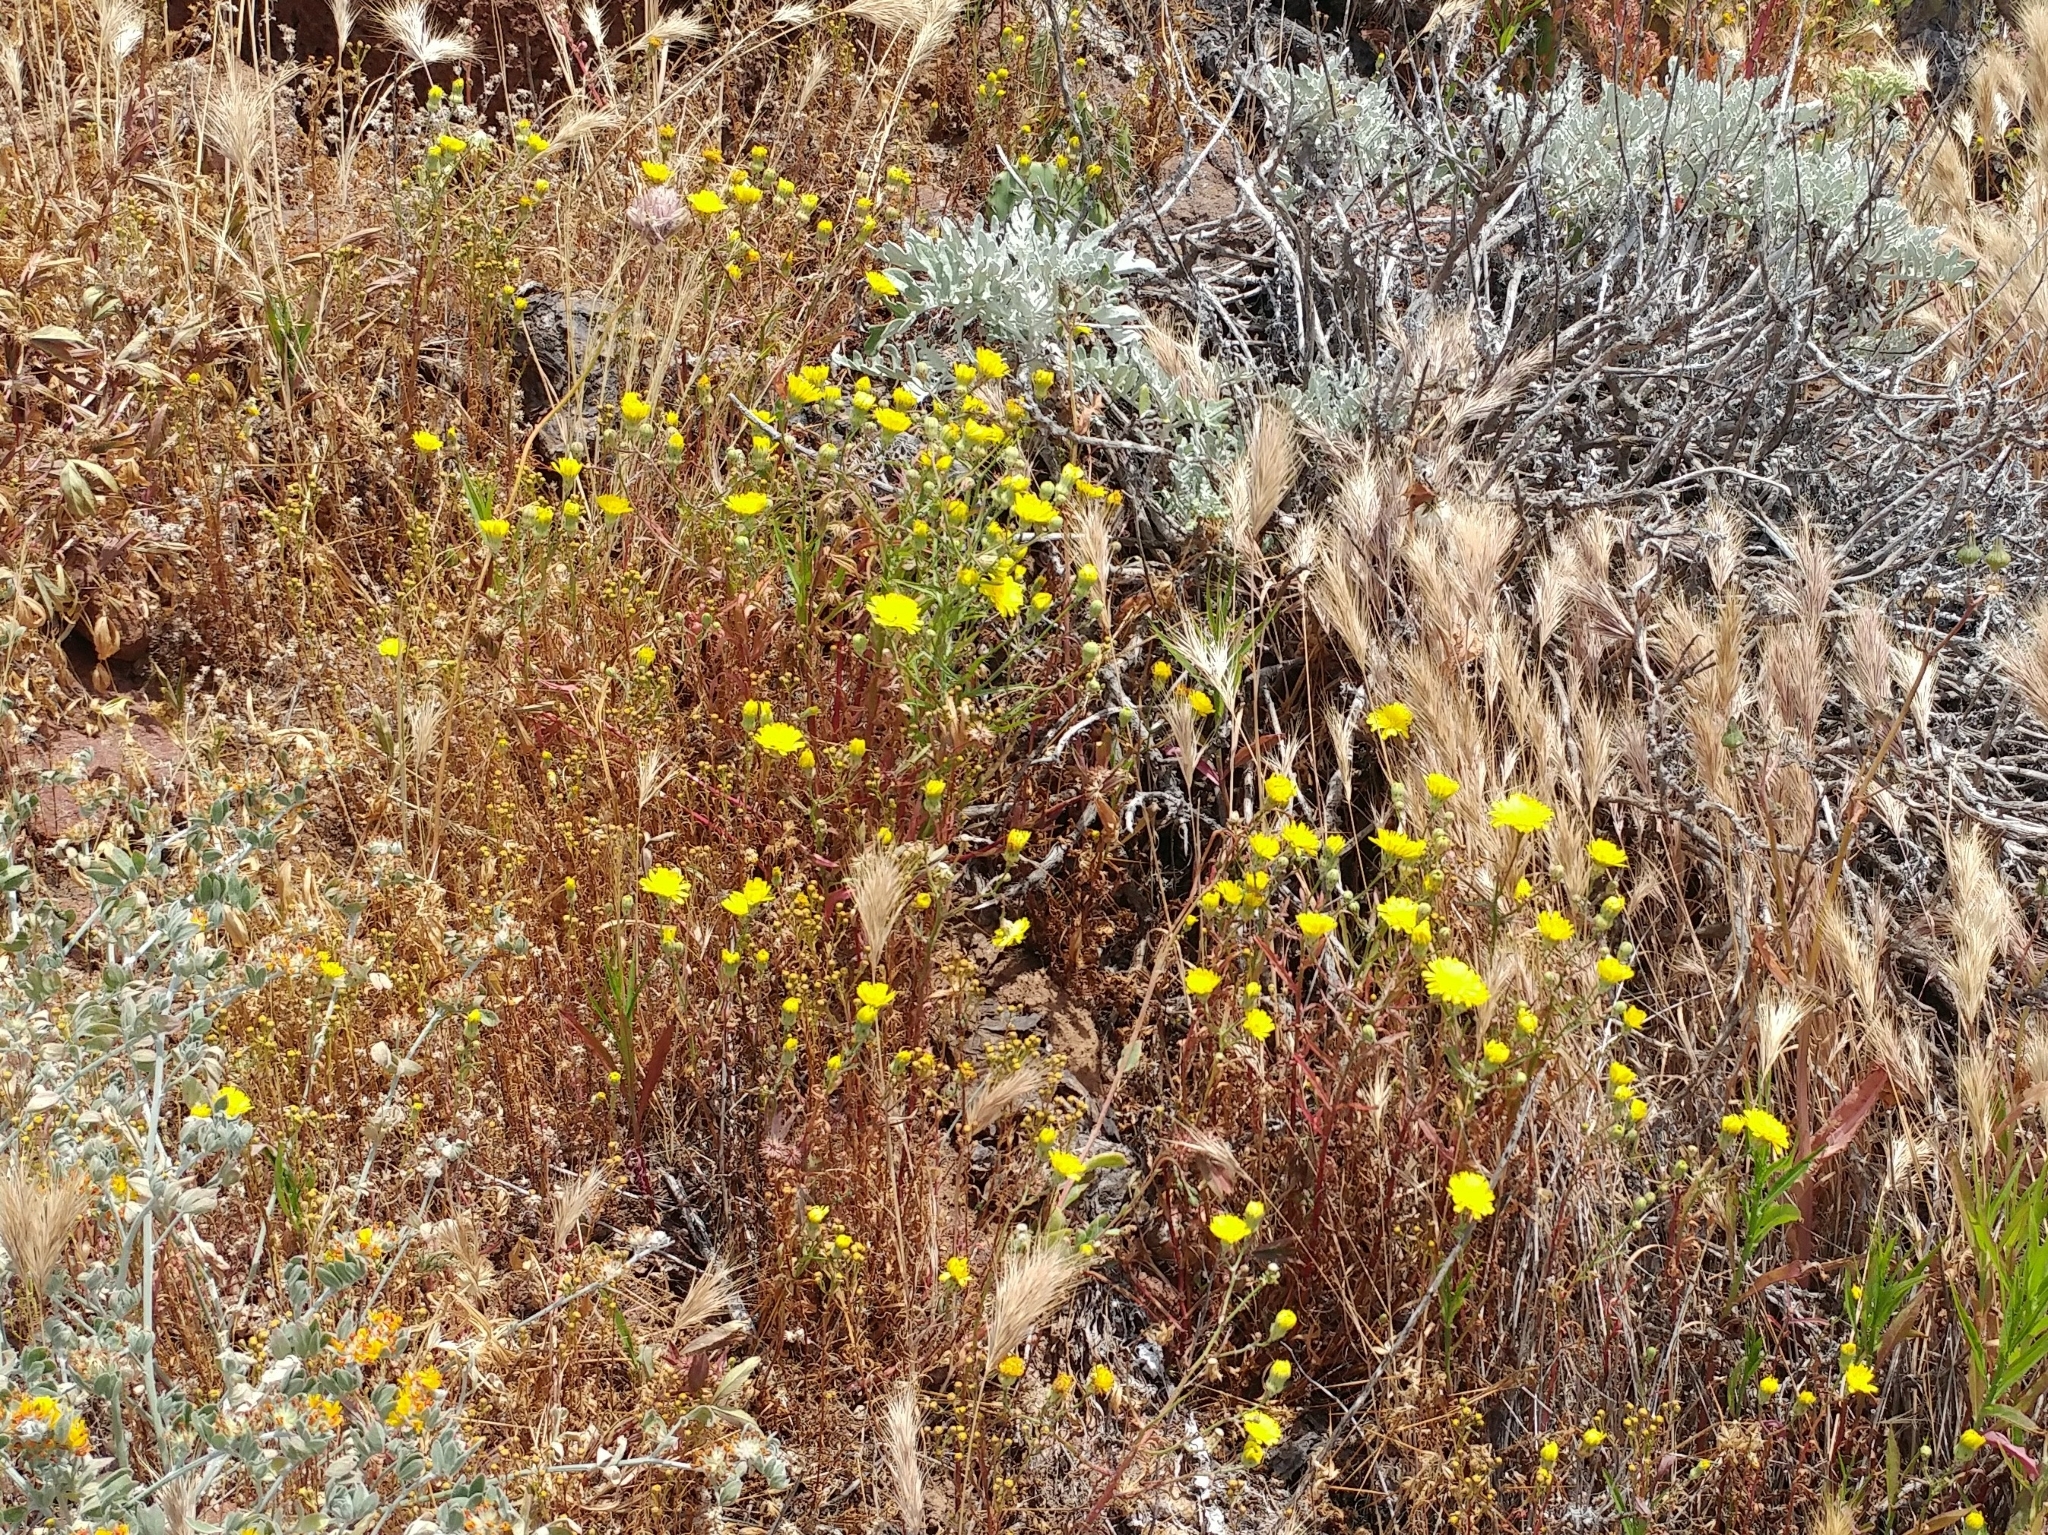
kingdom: Plantae
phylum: Tracheophyta
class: Magnoliopsida
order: Asterales
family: Asteraceae
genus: Malacothrix
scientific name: Malacothrix foliosa
